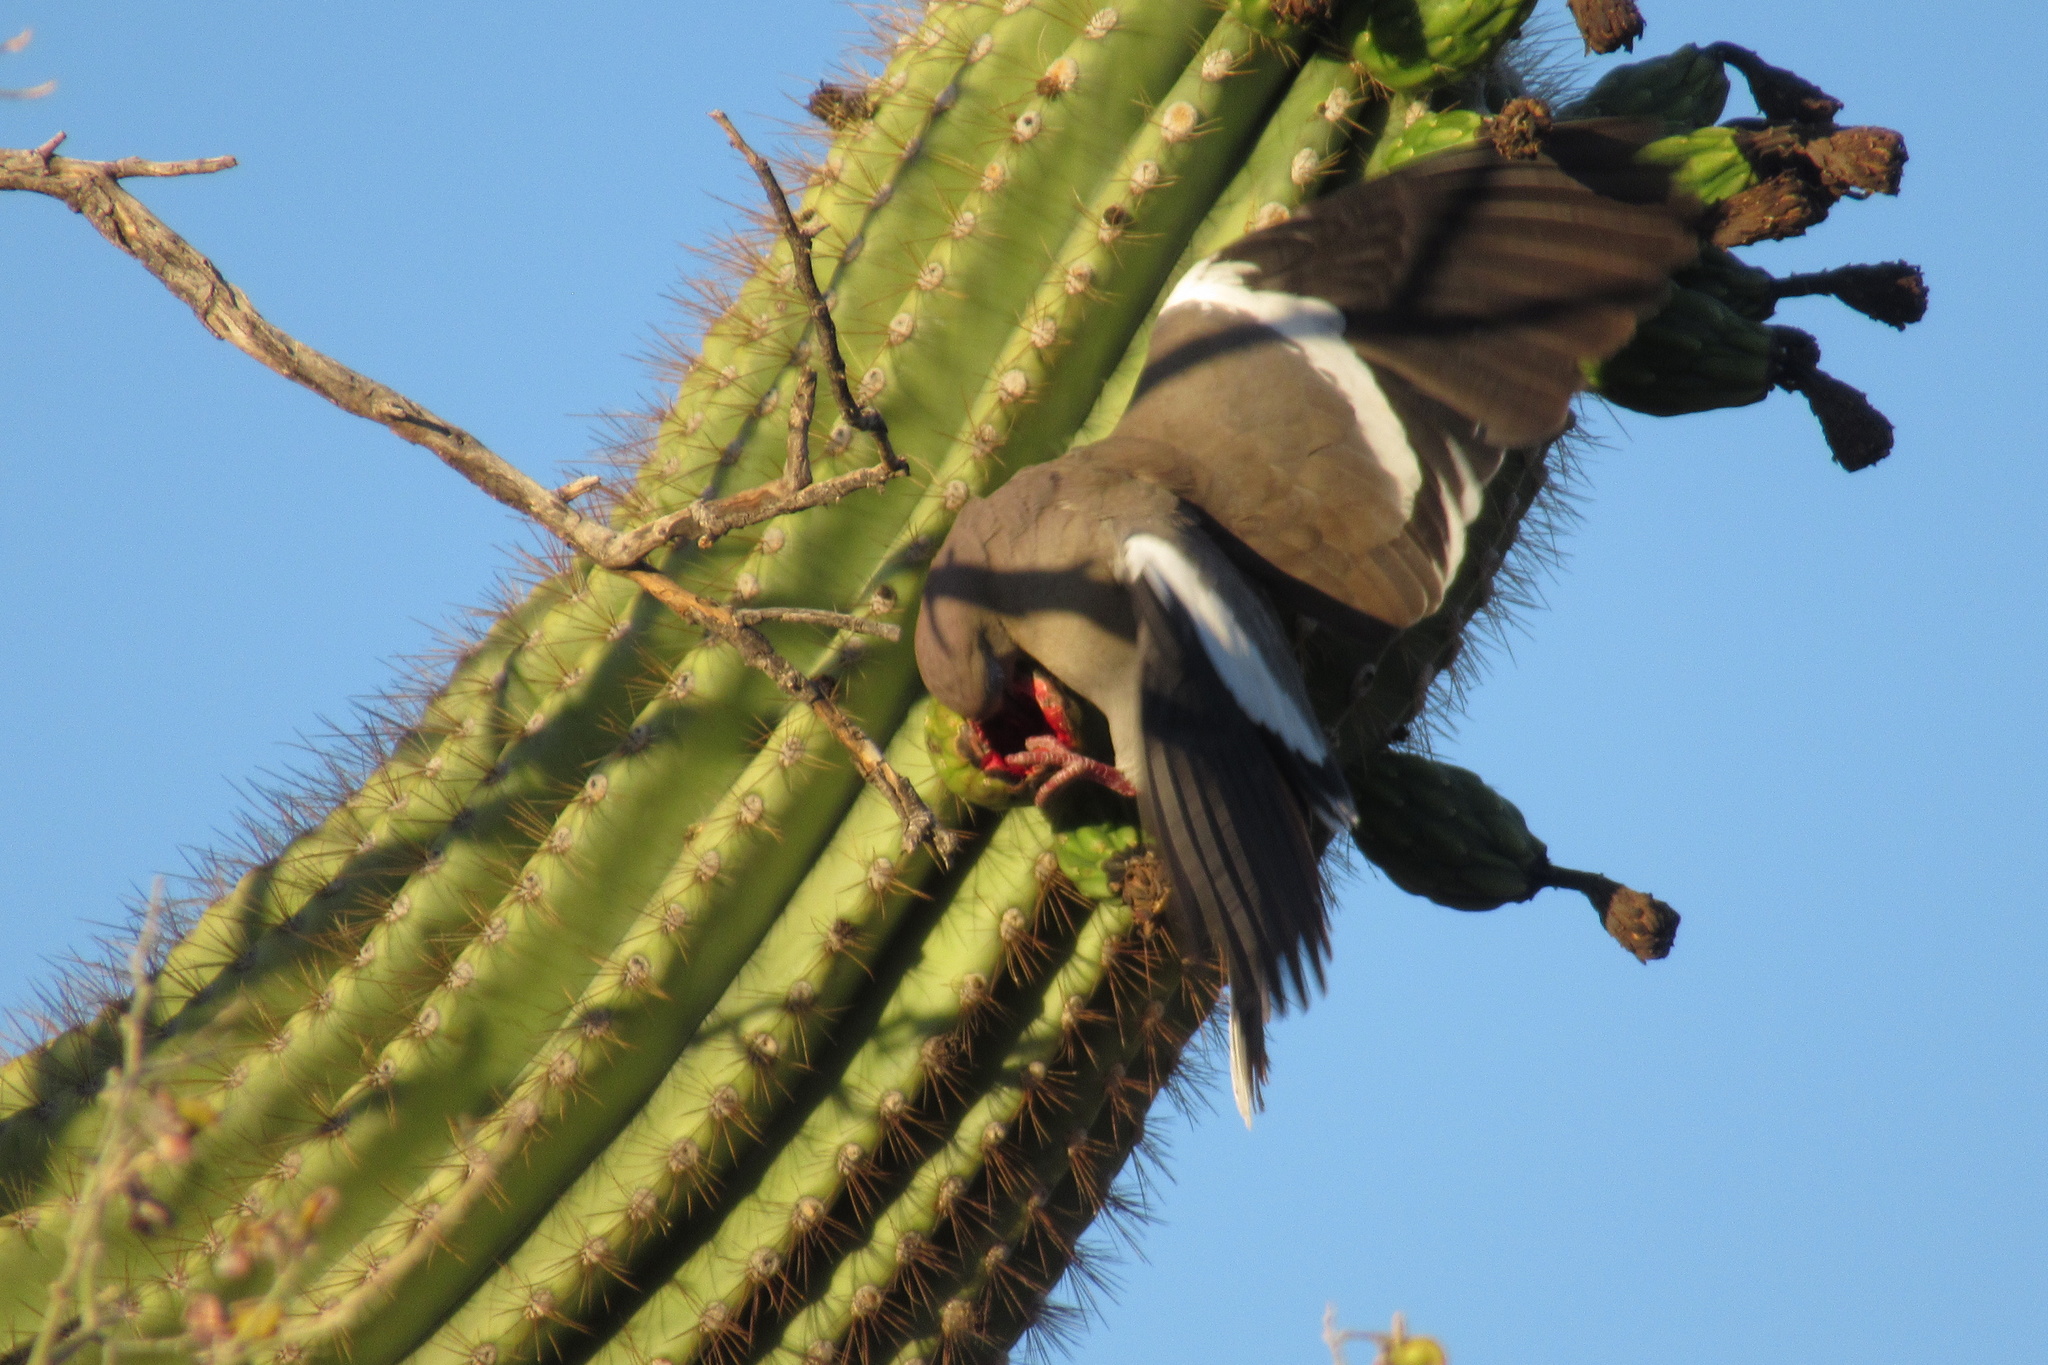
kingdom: Animalia
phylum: Chordata
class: Aves
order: Columbiformes
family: Columbidae
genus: Zenaida
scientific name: Zenaida asiatica
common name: White-winged dove
